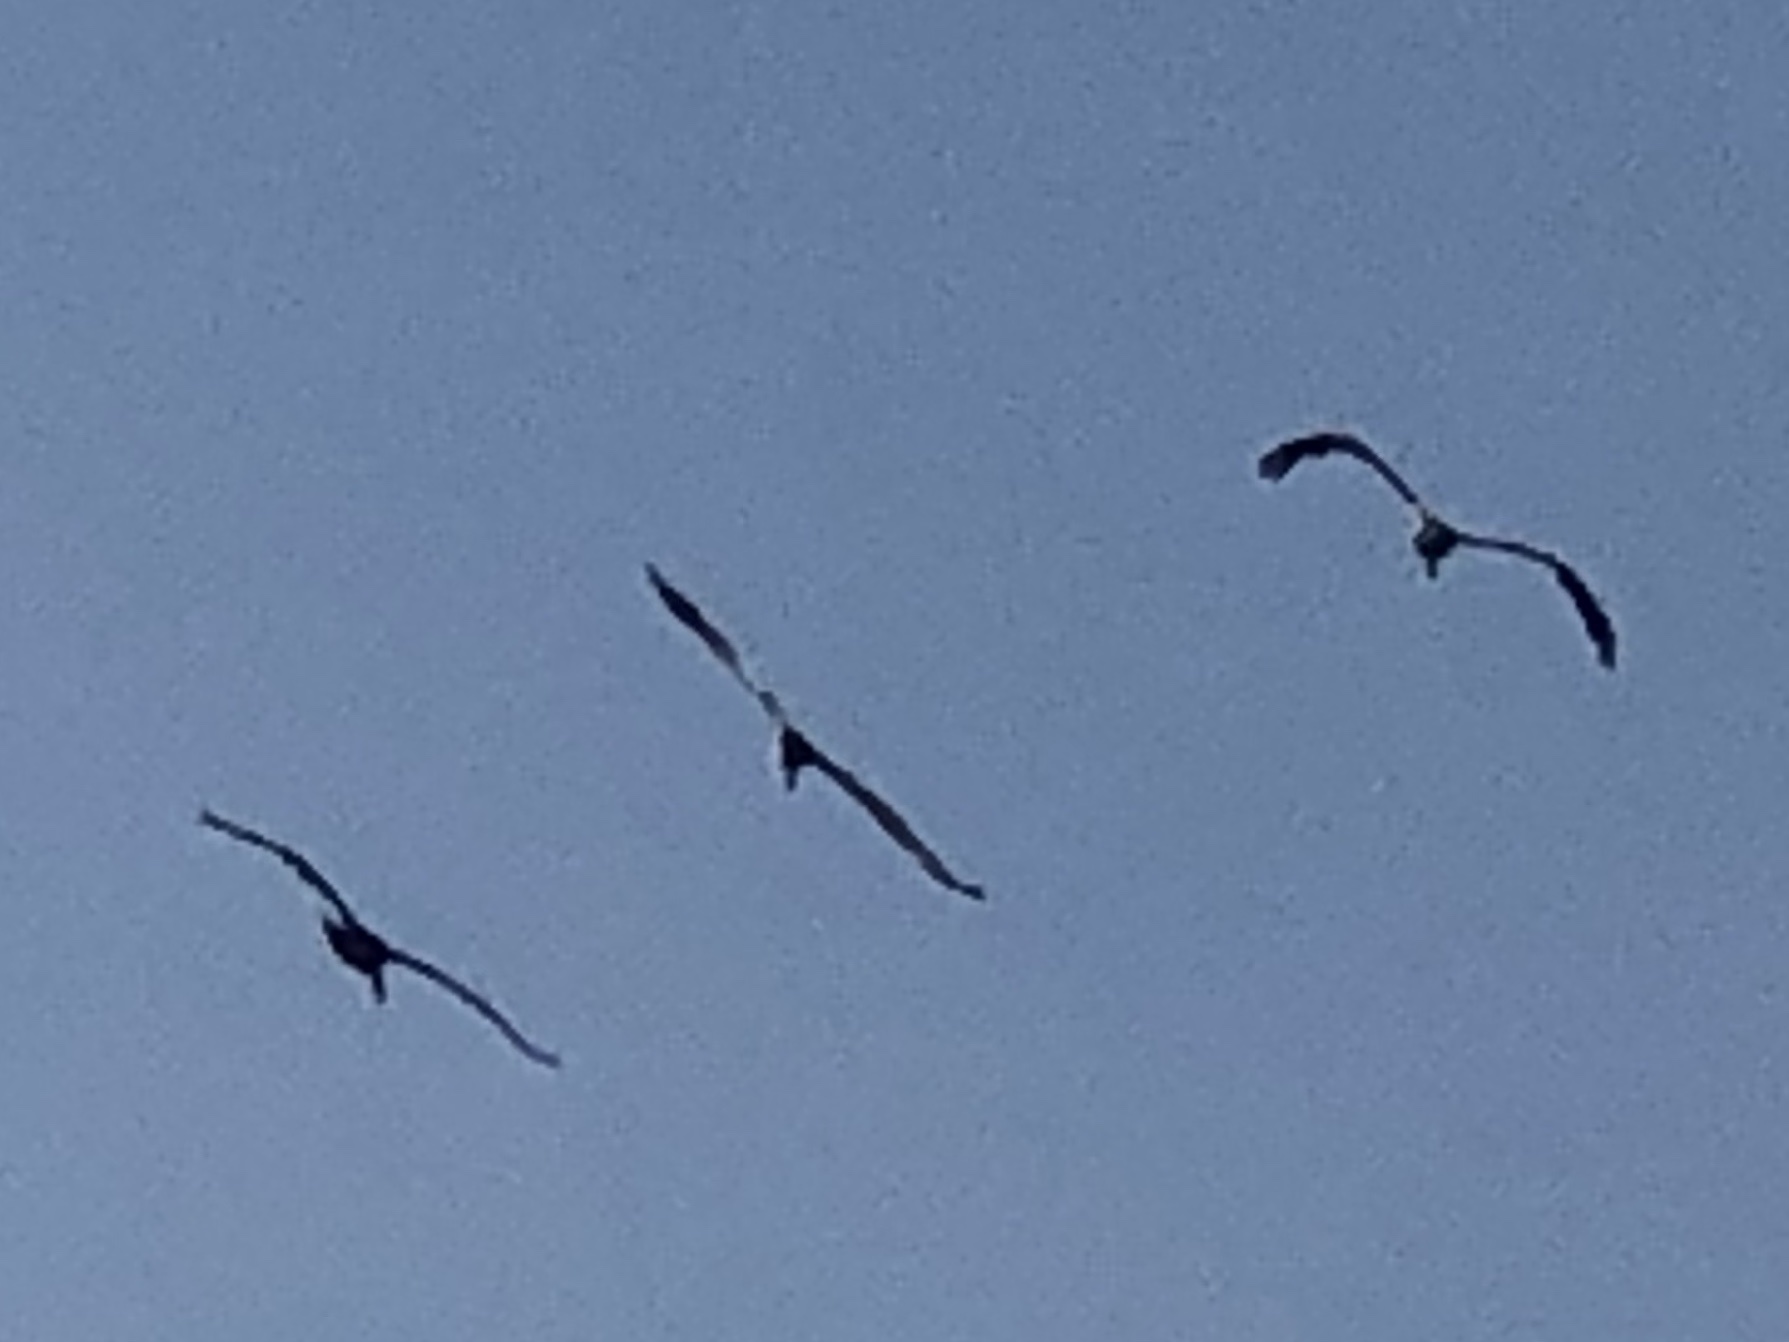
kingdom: Animalia
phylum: Chordata
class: Aves
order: Pelecaniformes
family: Pelecanidae
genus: Pelecanus
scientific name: Pelecanus occidentalis
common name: Brown pelican
